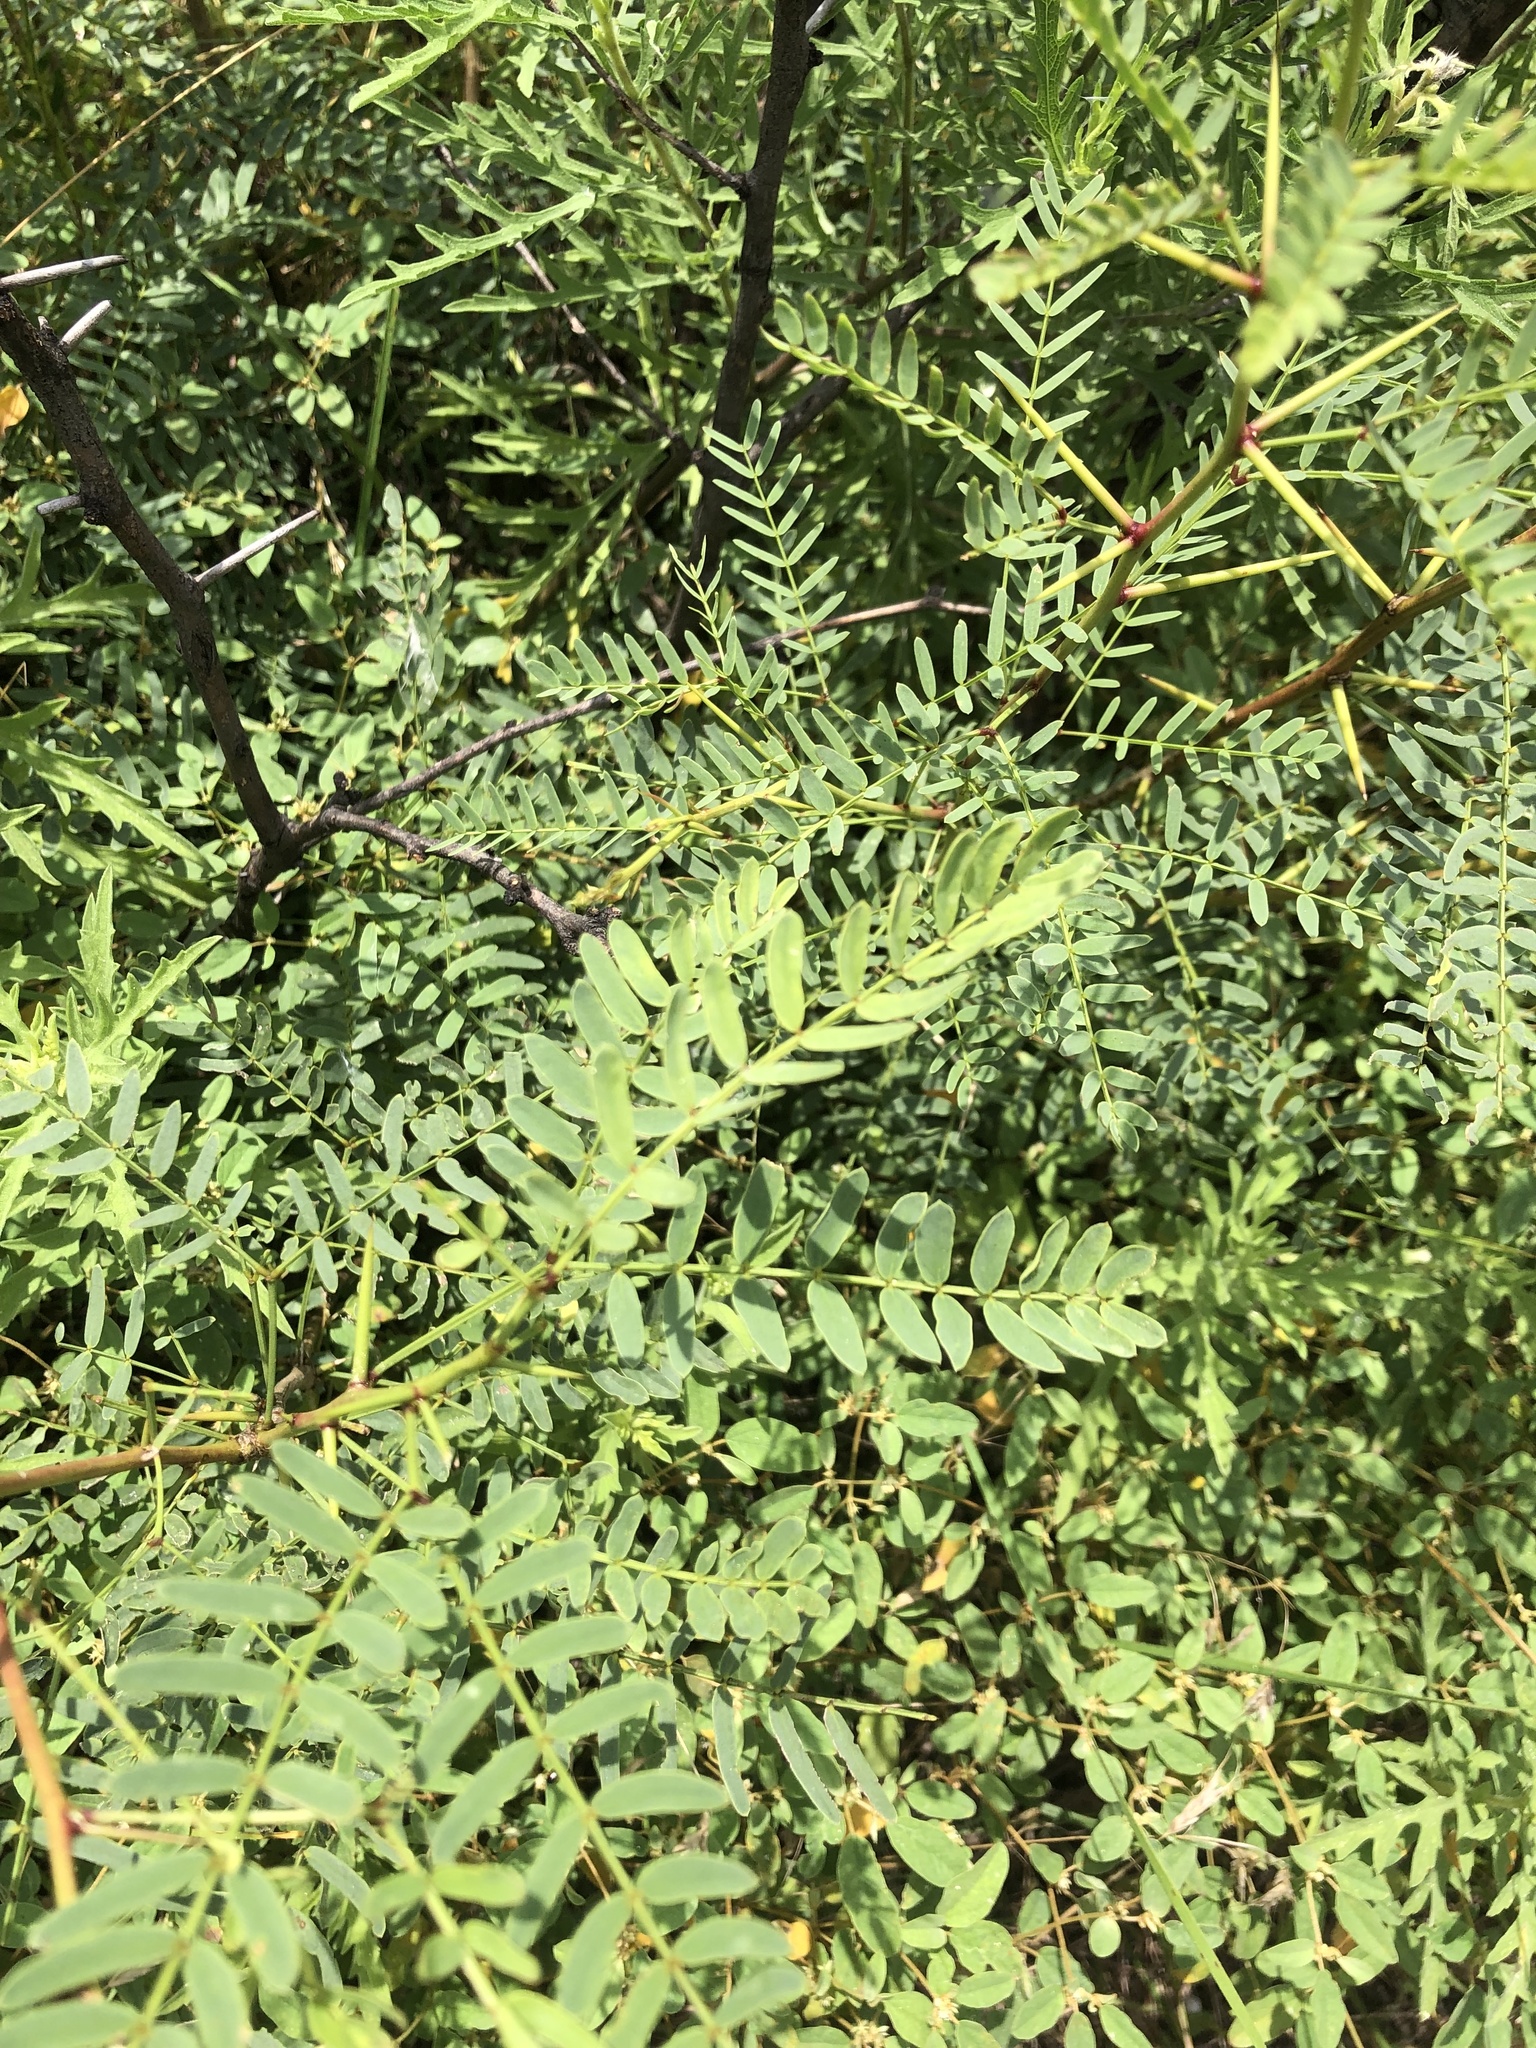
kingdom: Plantae
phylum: Tracheophyta
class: Magnoliopsida
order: Fabales
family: Fabaceae
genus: Prosopis
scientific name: Prosopis glandulosa
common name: Honey mesquite
